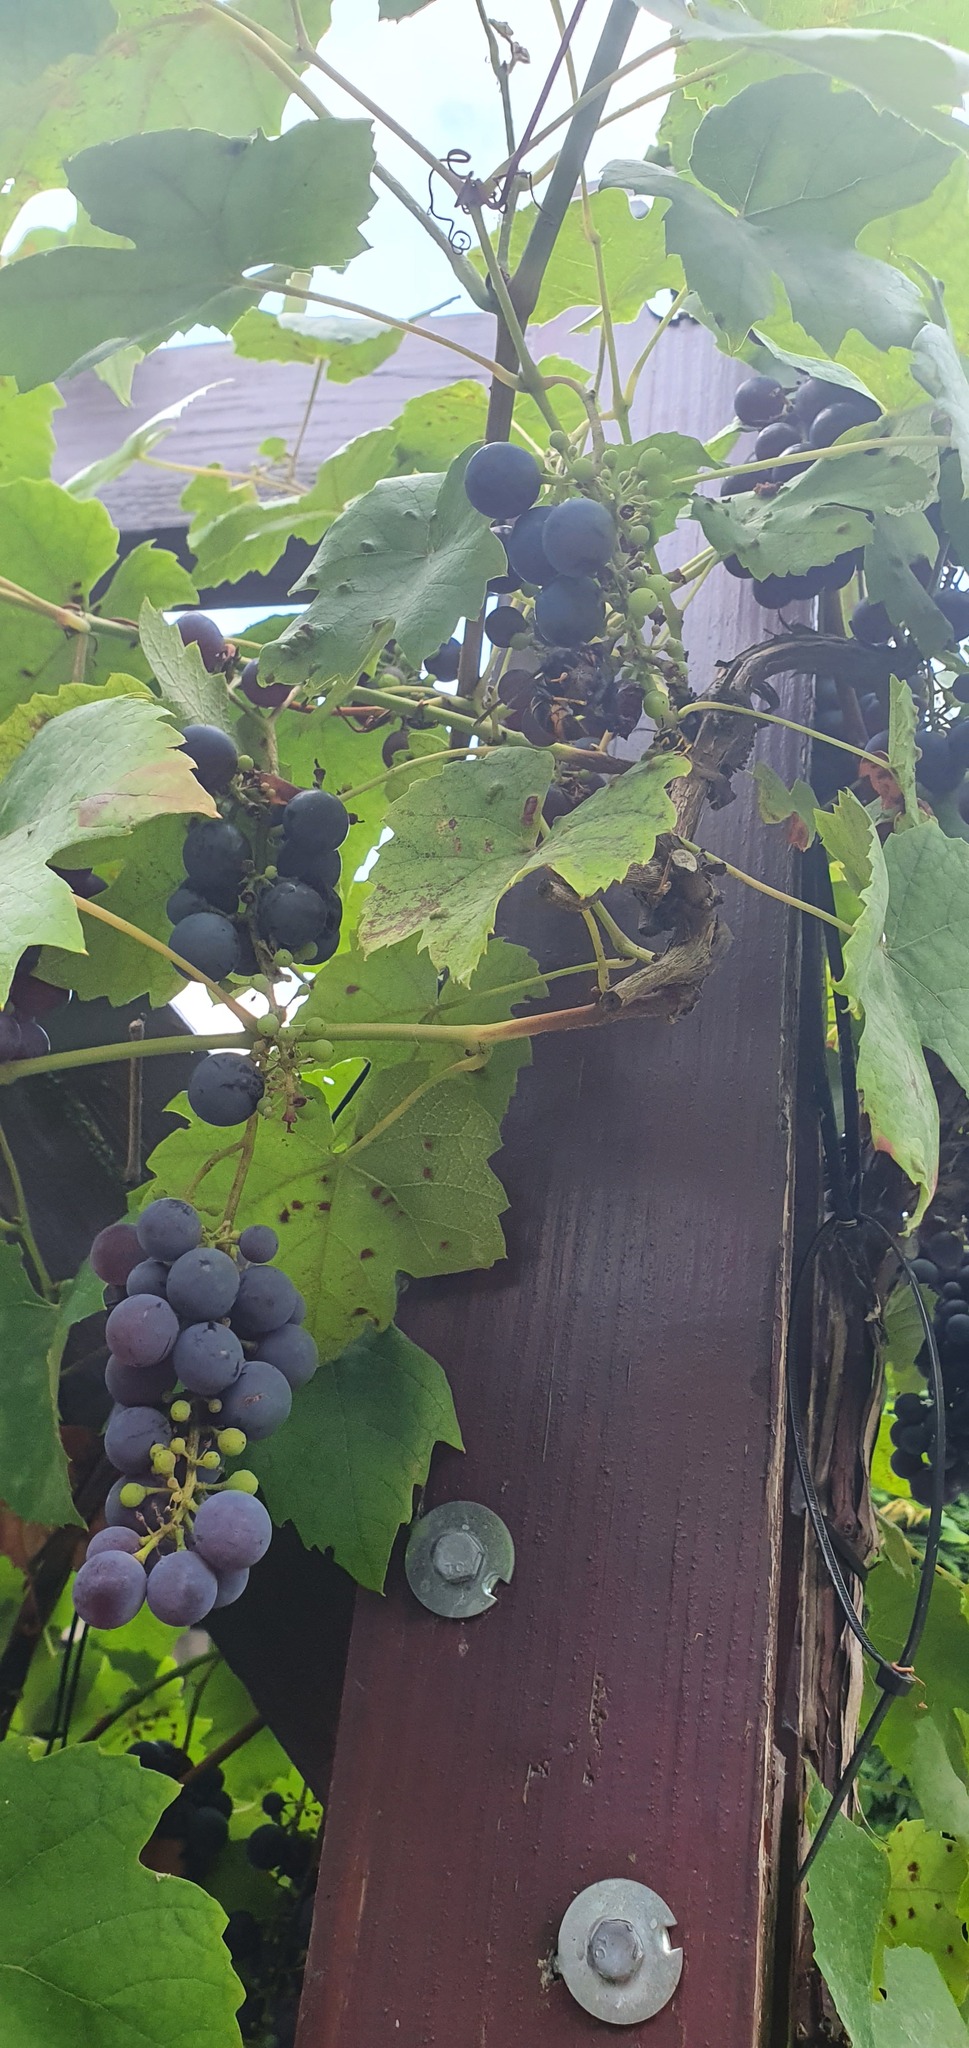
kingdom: Animalia
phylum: Arthropoda
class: Insecta
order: Hymenoptera
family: Vespidae
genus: Vespa
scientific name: Vespa velutina
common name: Asian hornet
